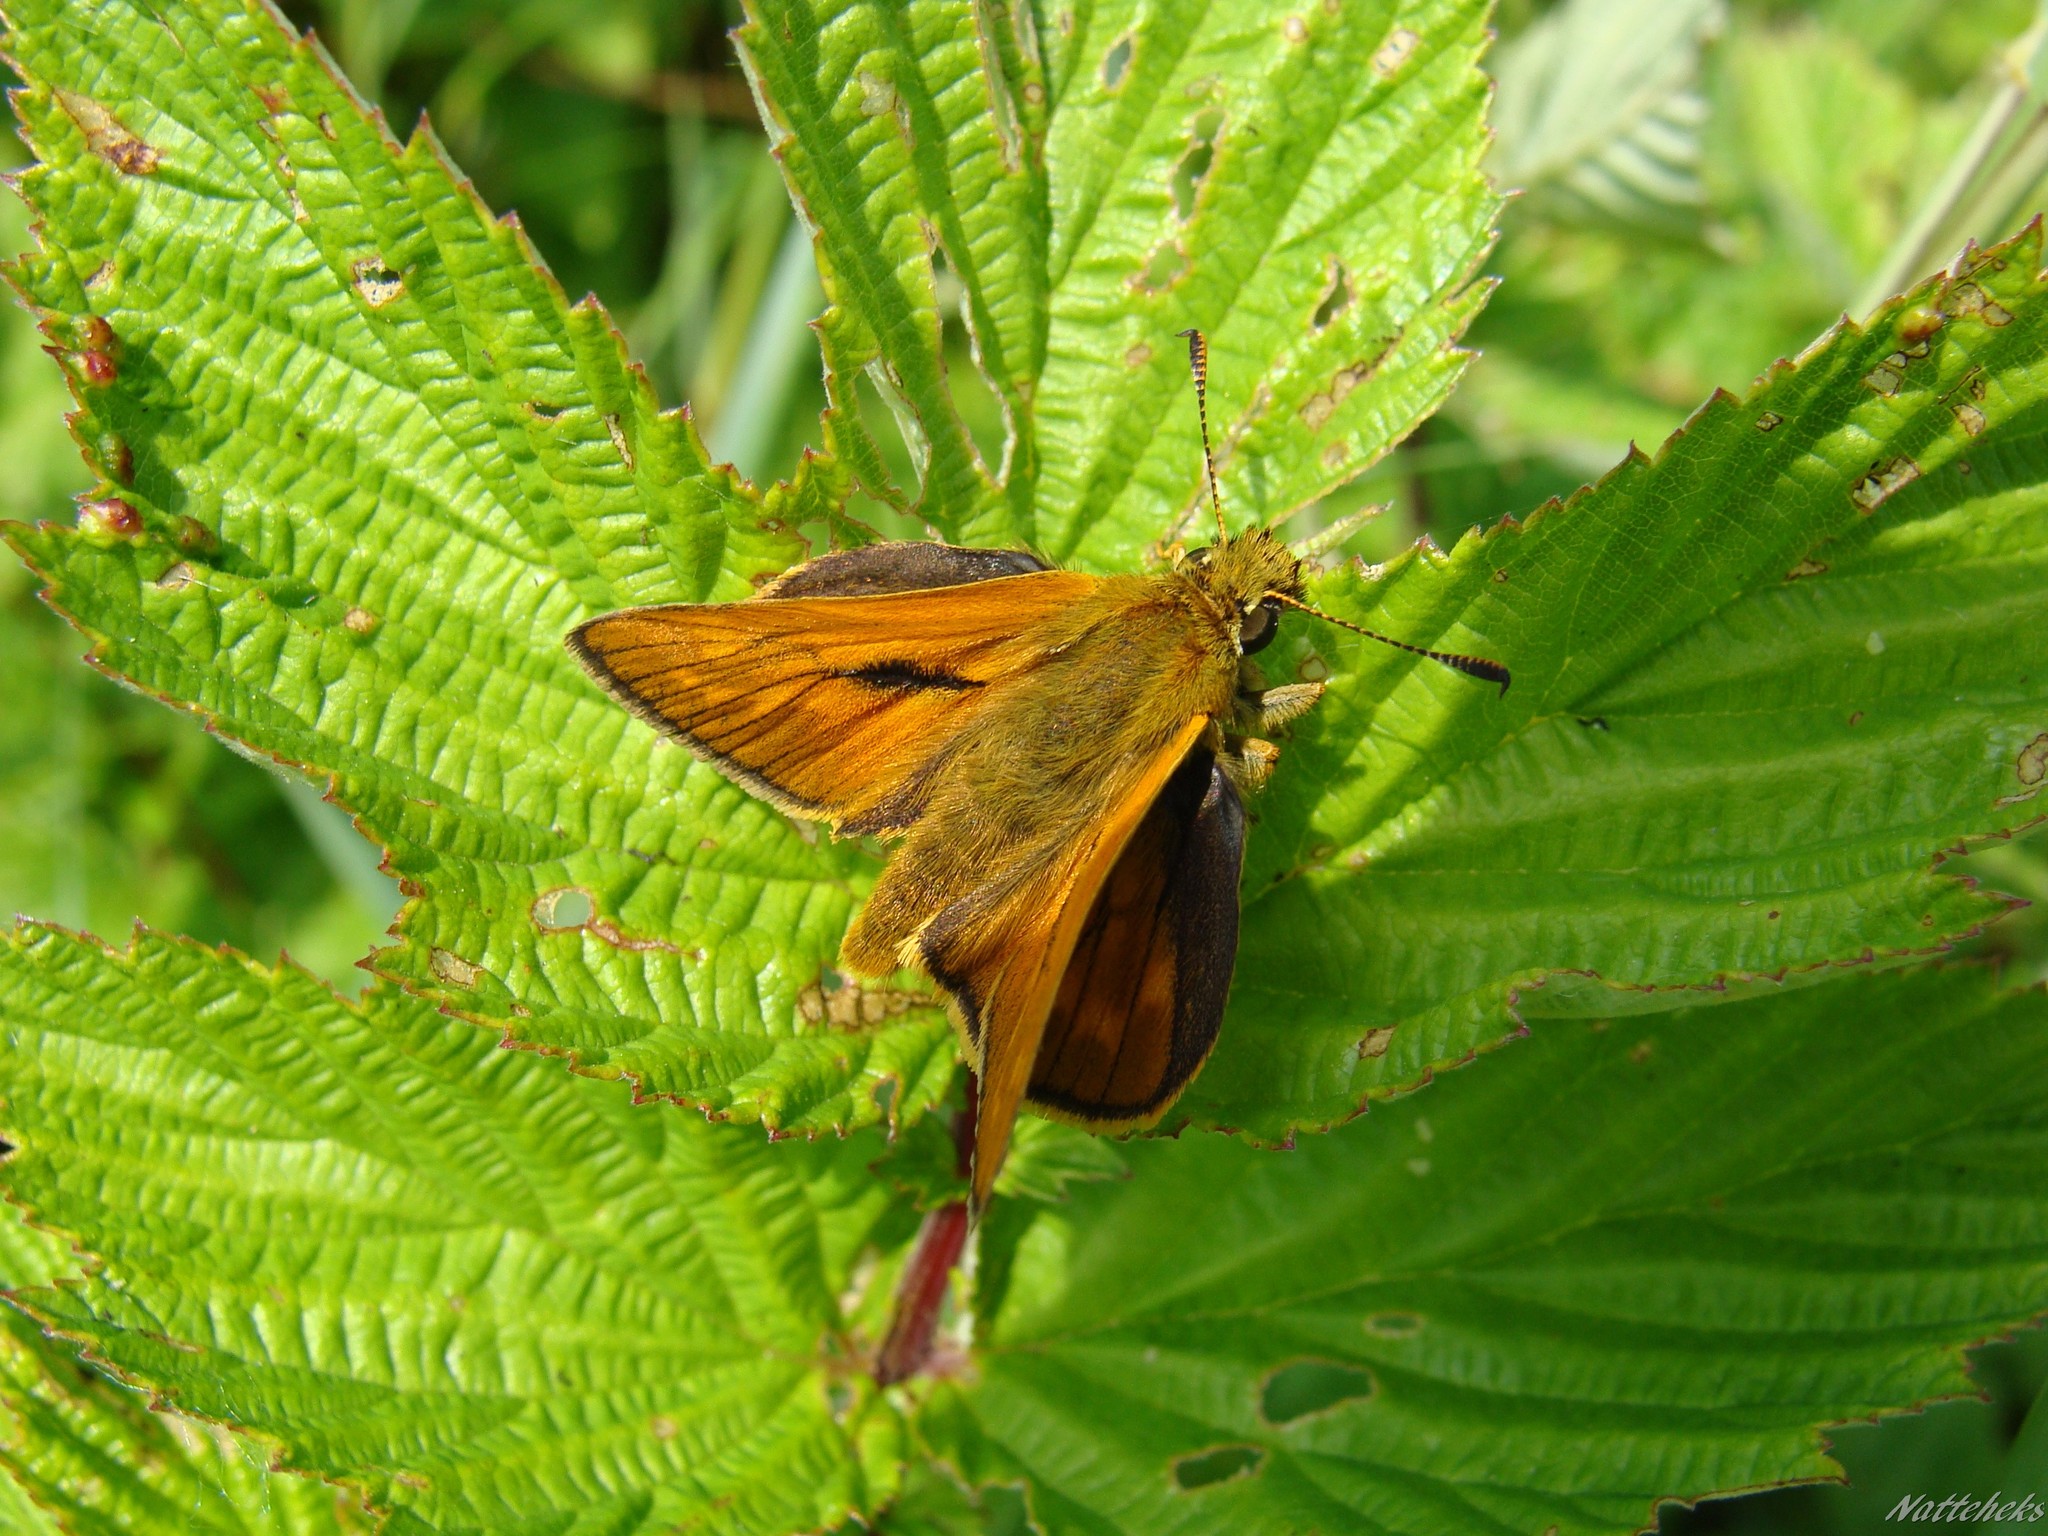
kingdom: Animalia
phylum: Arthropoda
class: Insecta
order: Lepidoptera
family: Hesperiidae
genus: Ochlodes
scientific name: Ochlodes venata
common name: Large skipper
